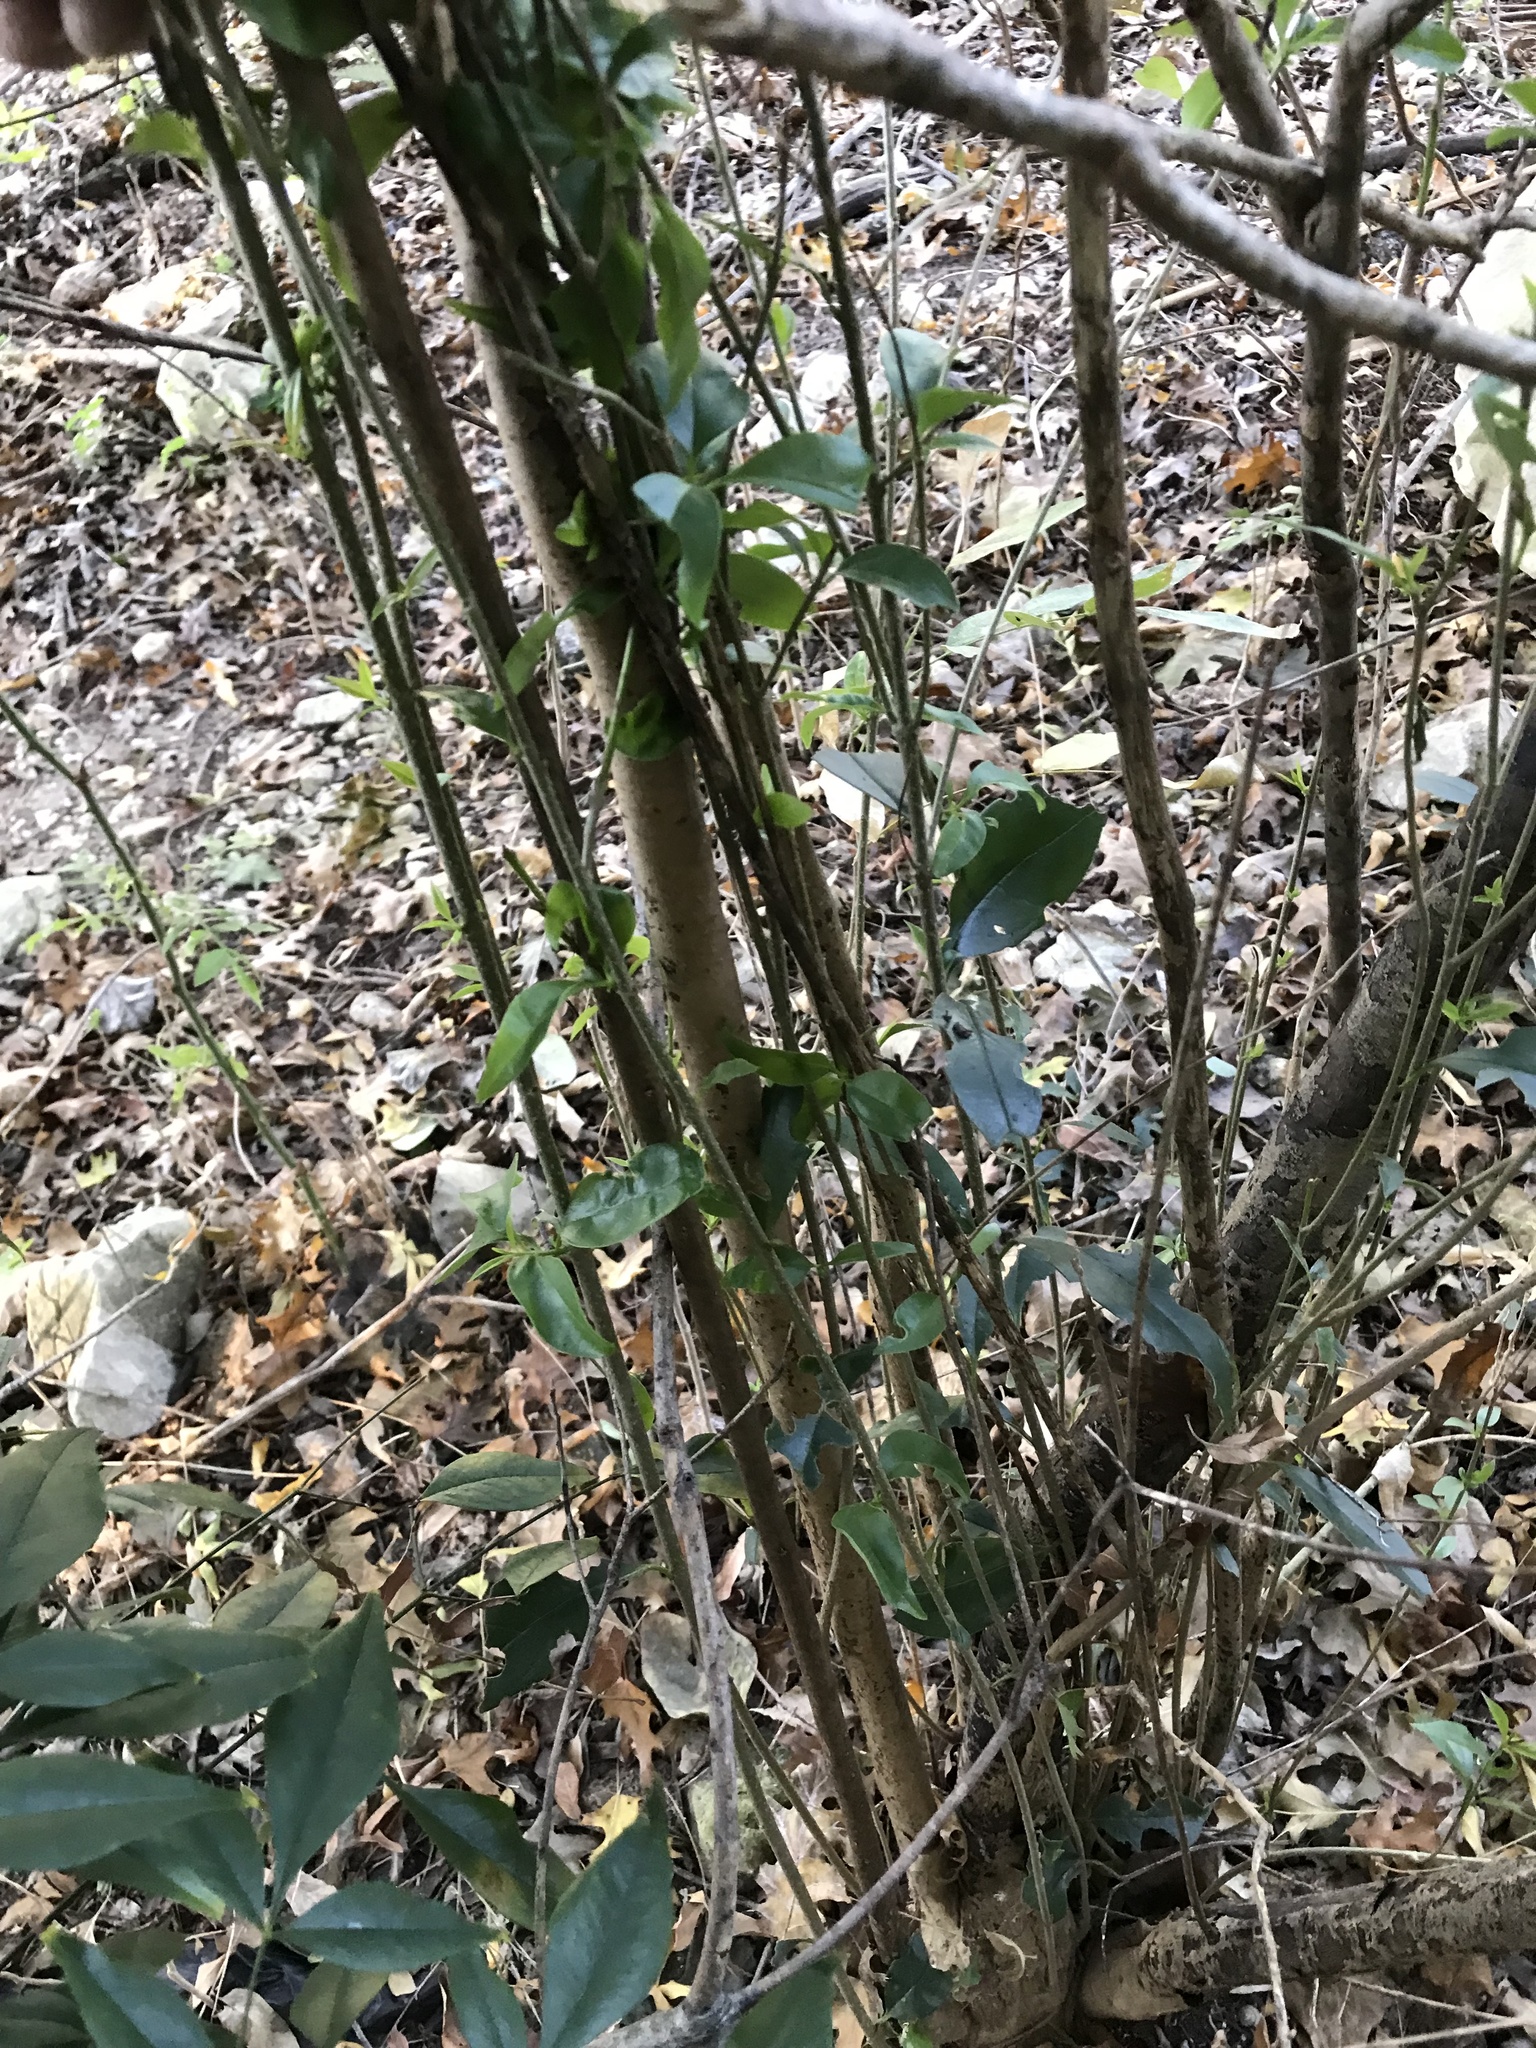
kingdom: Plantae
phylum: Tracheophyta
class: Magnoliopsida
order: Lamiales
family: Oleaceae
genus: Ligustrum
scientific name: Ligustrum lucidum
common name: Glossy privet
